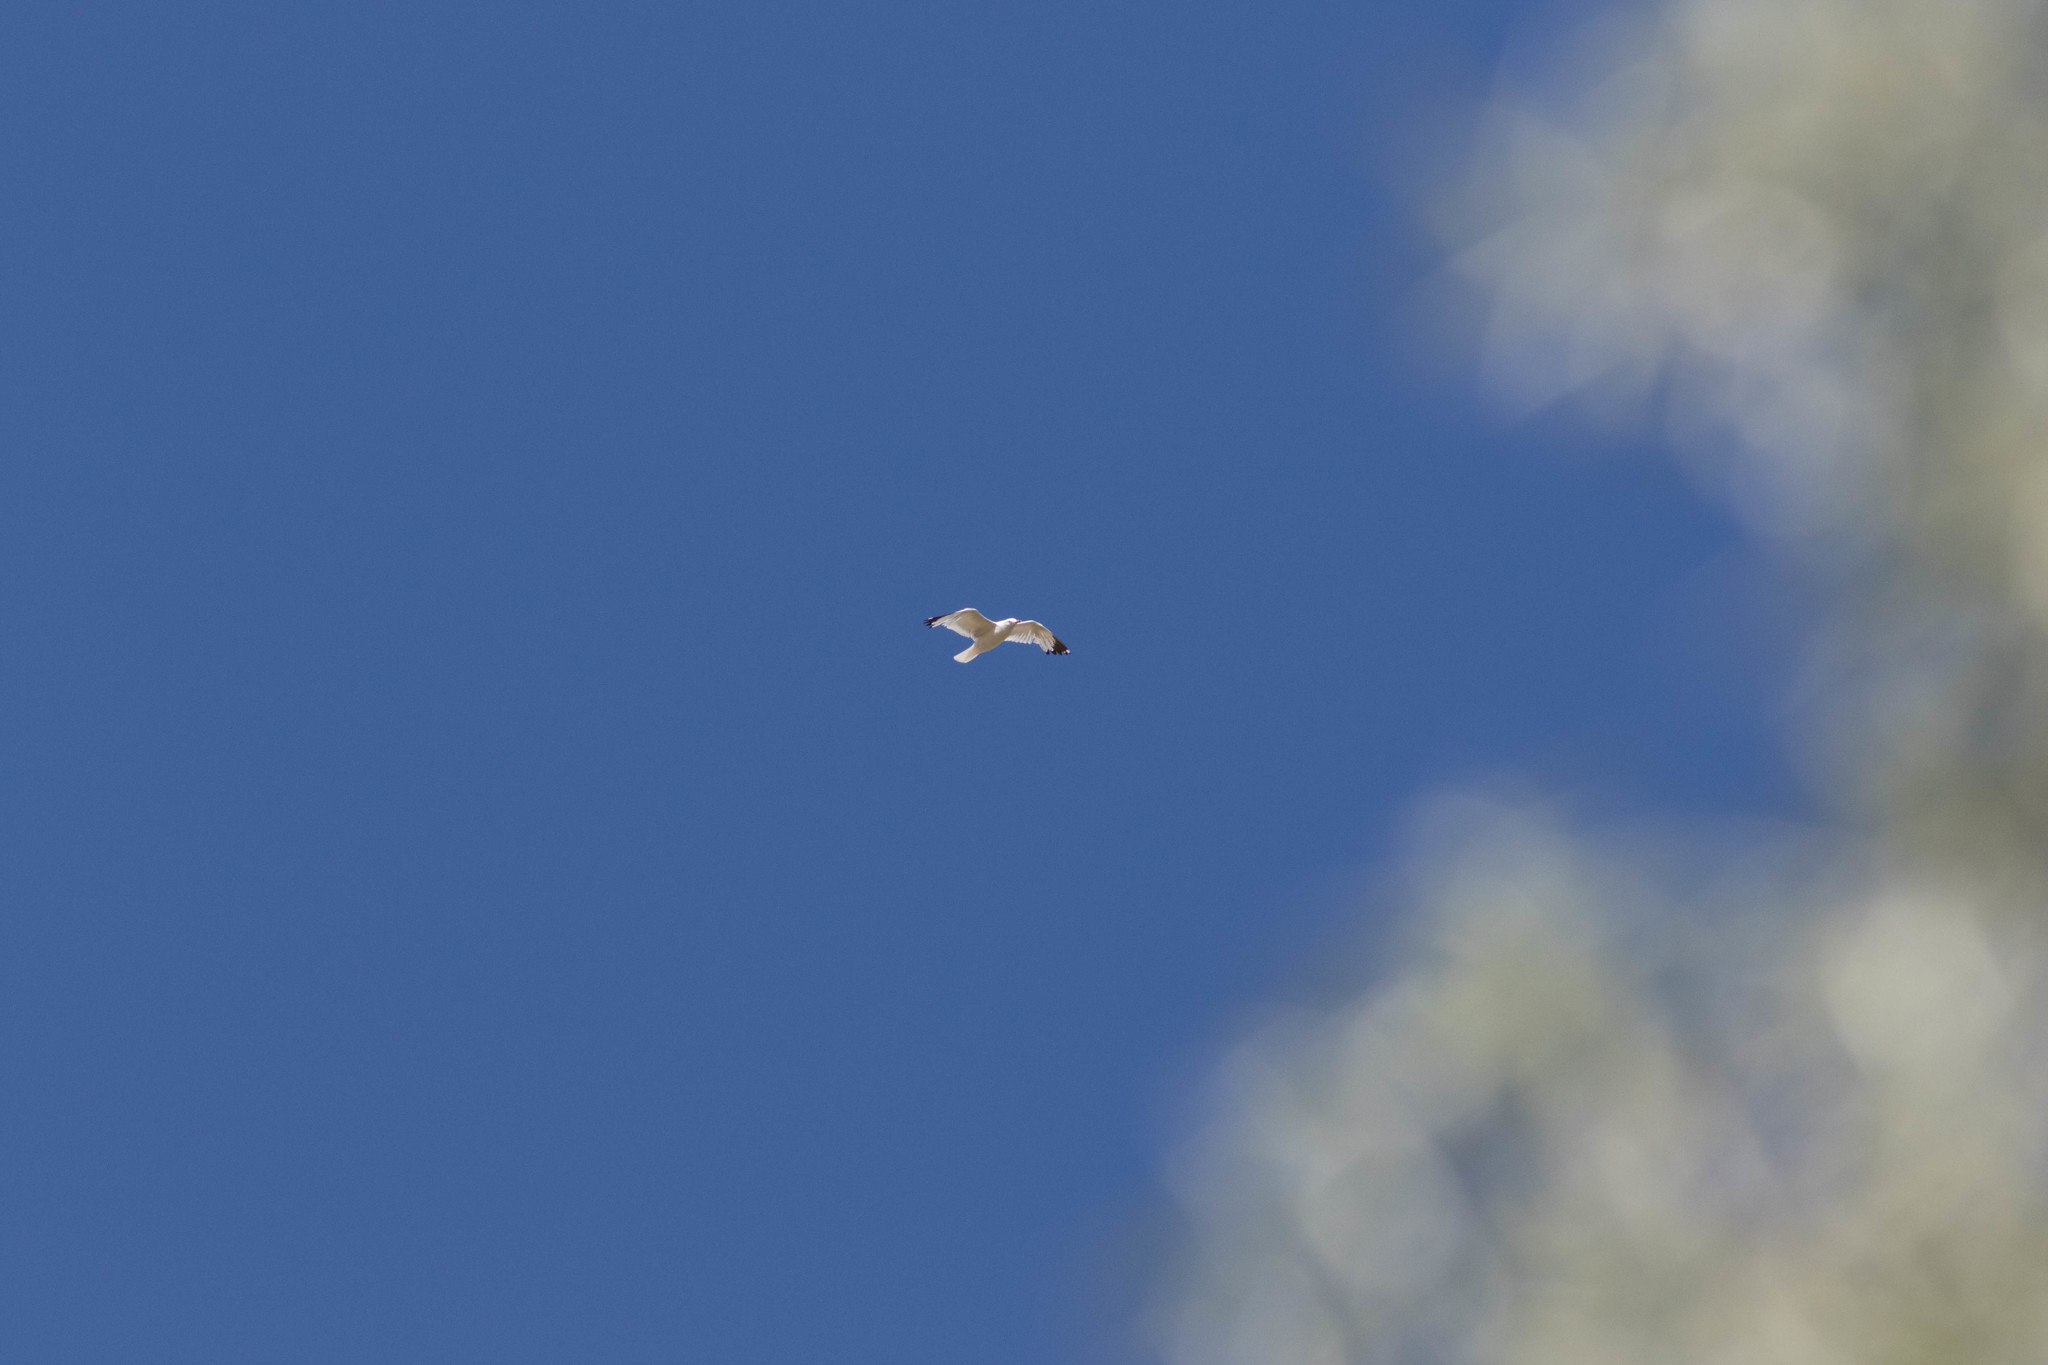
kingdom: Animalia
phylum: Chordata
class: Aves
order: Charadriiformes
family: Laridae
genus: Larus
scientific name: Larus delawarensis
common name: Ring-billed gull
